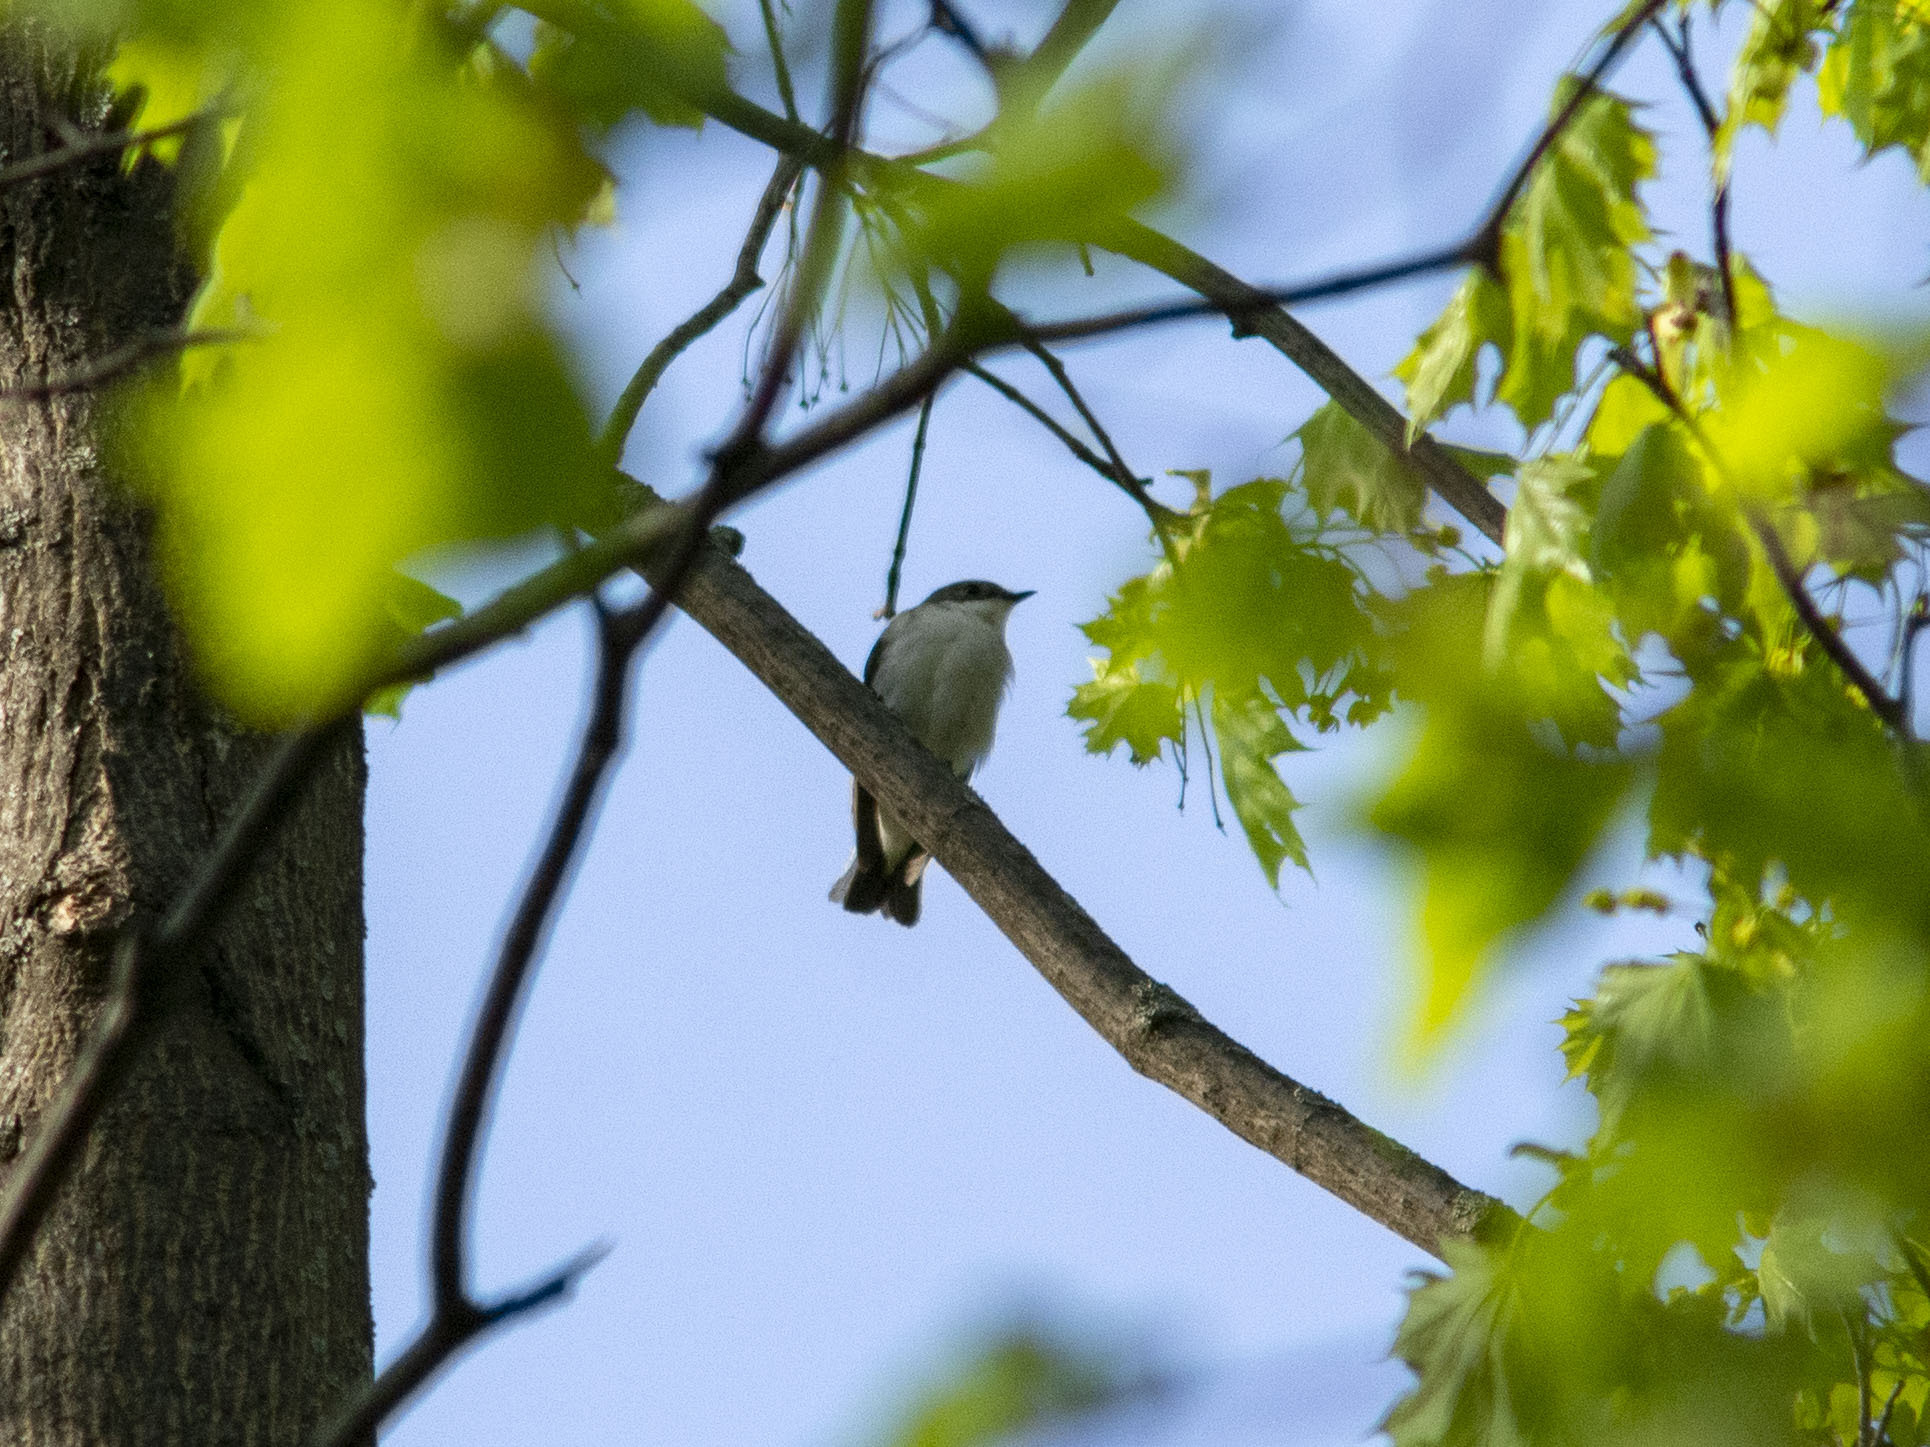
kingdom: Animalia
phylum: Chordata
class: Aves
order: Passeriformes
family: Muscicapidae
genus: Ficedula
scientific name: Ficedula hypoleuca
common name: European pied flycatcher
